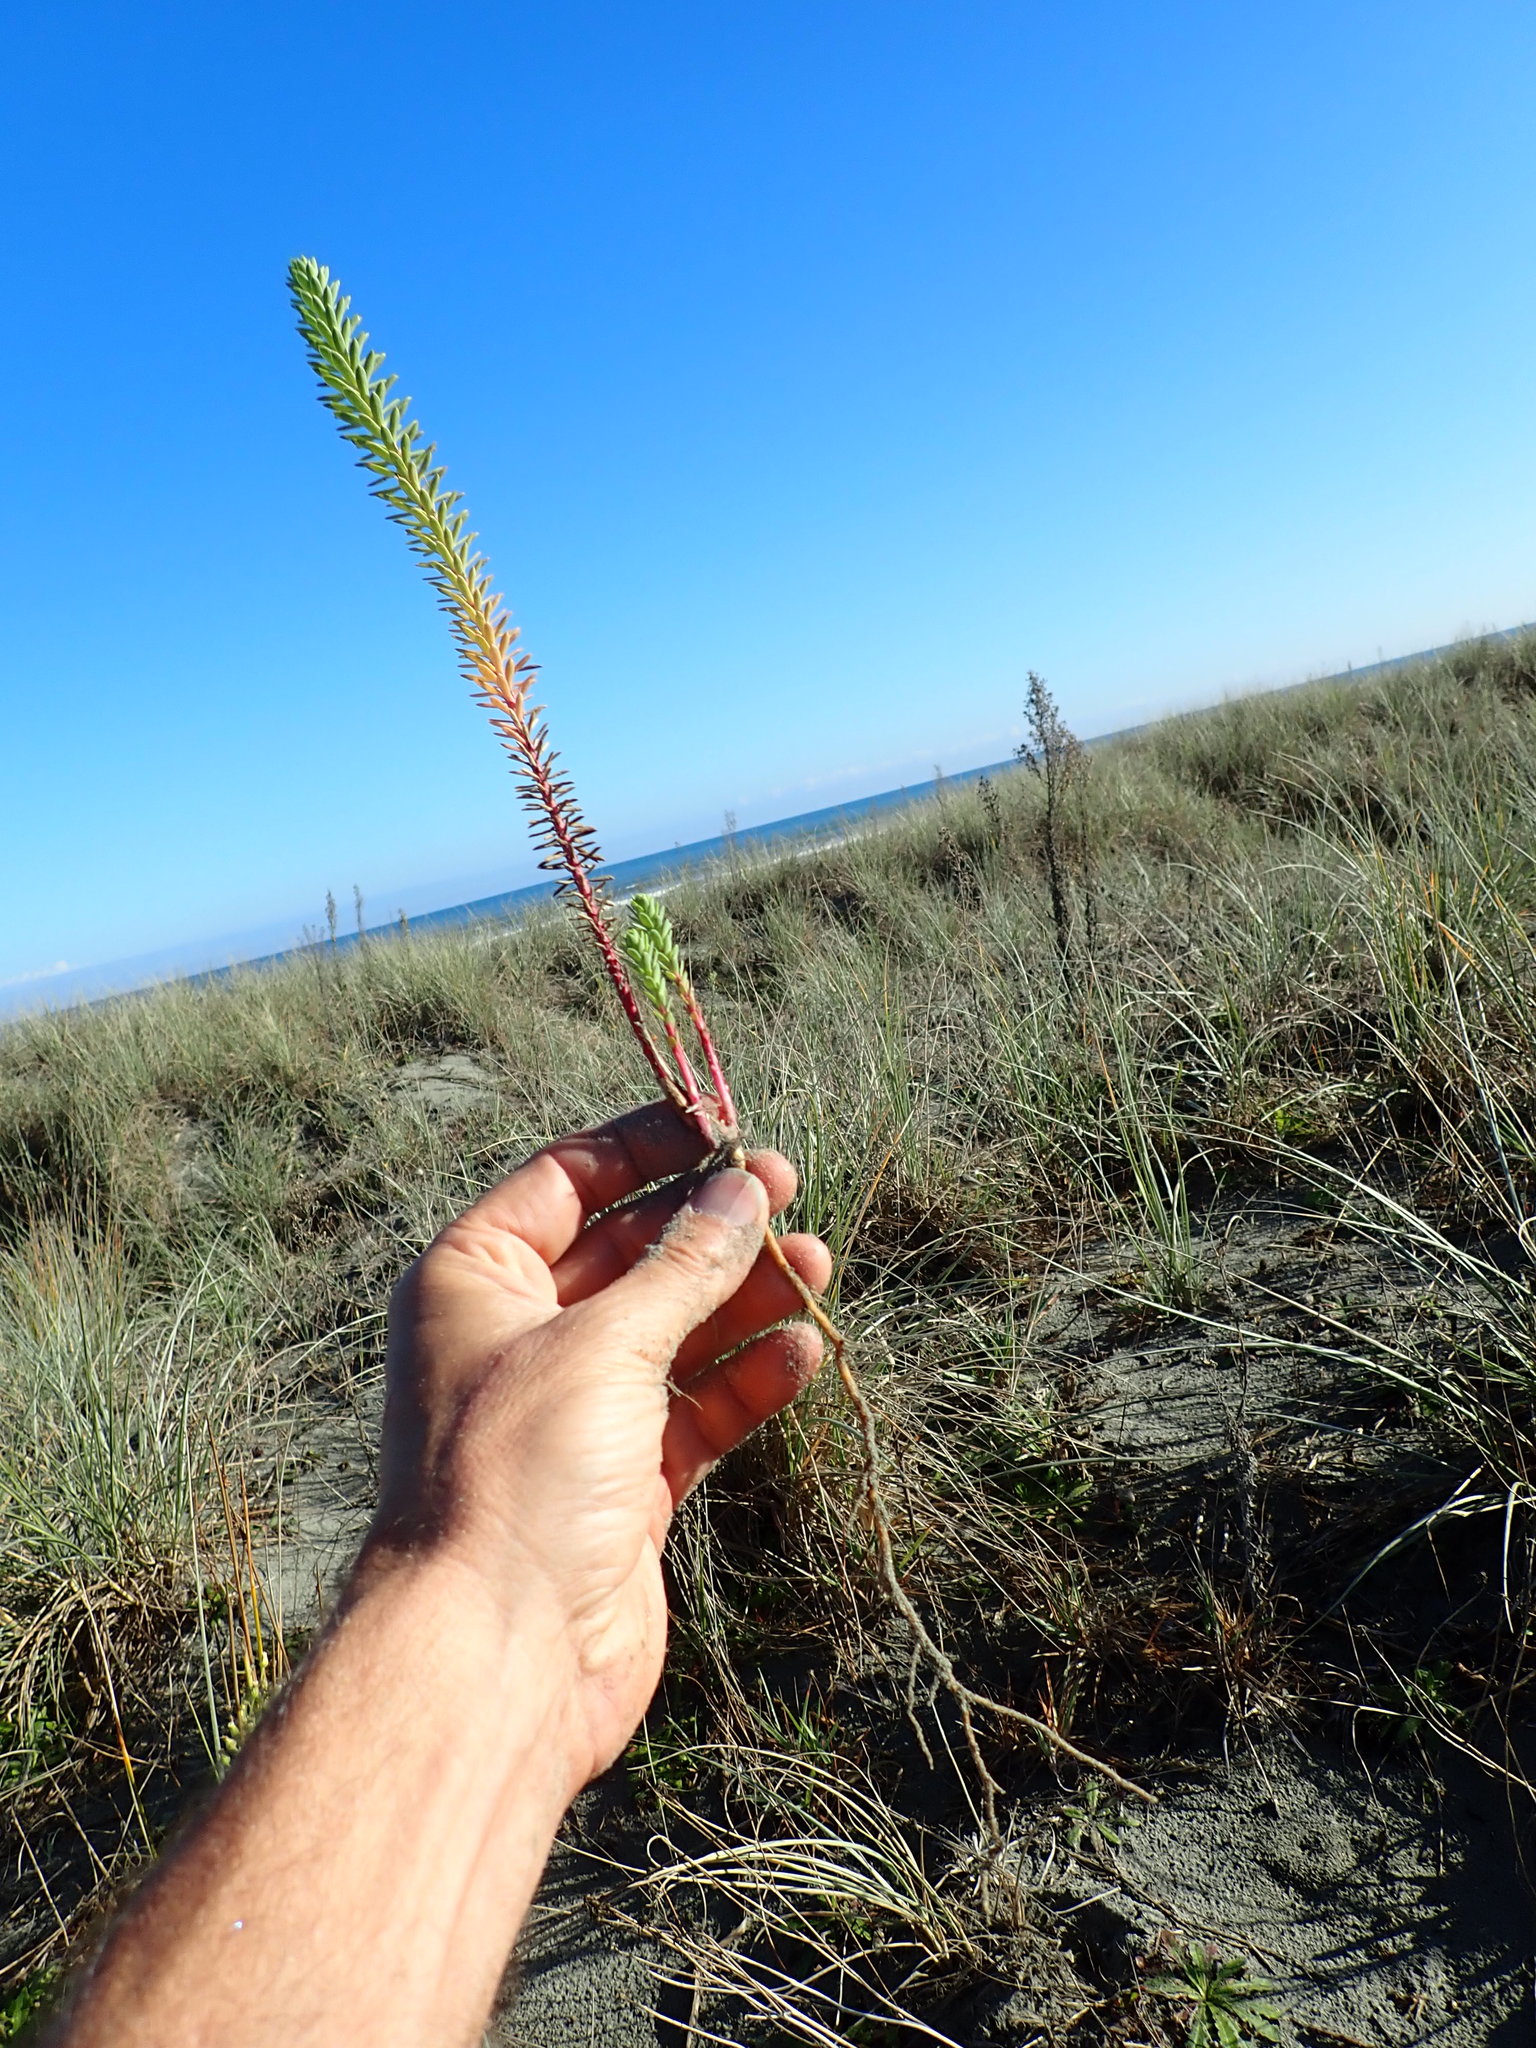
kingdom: Plantae
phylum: Tracheophyta
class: Magnoliopsida
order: Malpighiales
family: Euphorbiaceae
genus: Euphorbia
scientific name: Euphorbia paralias
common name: Sea spurge
